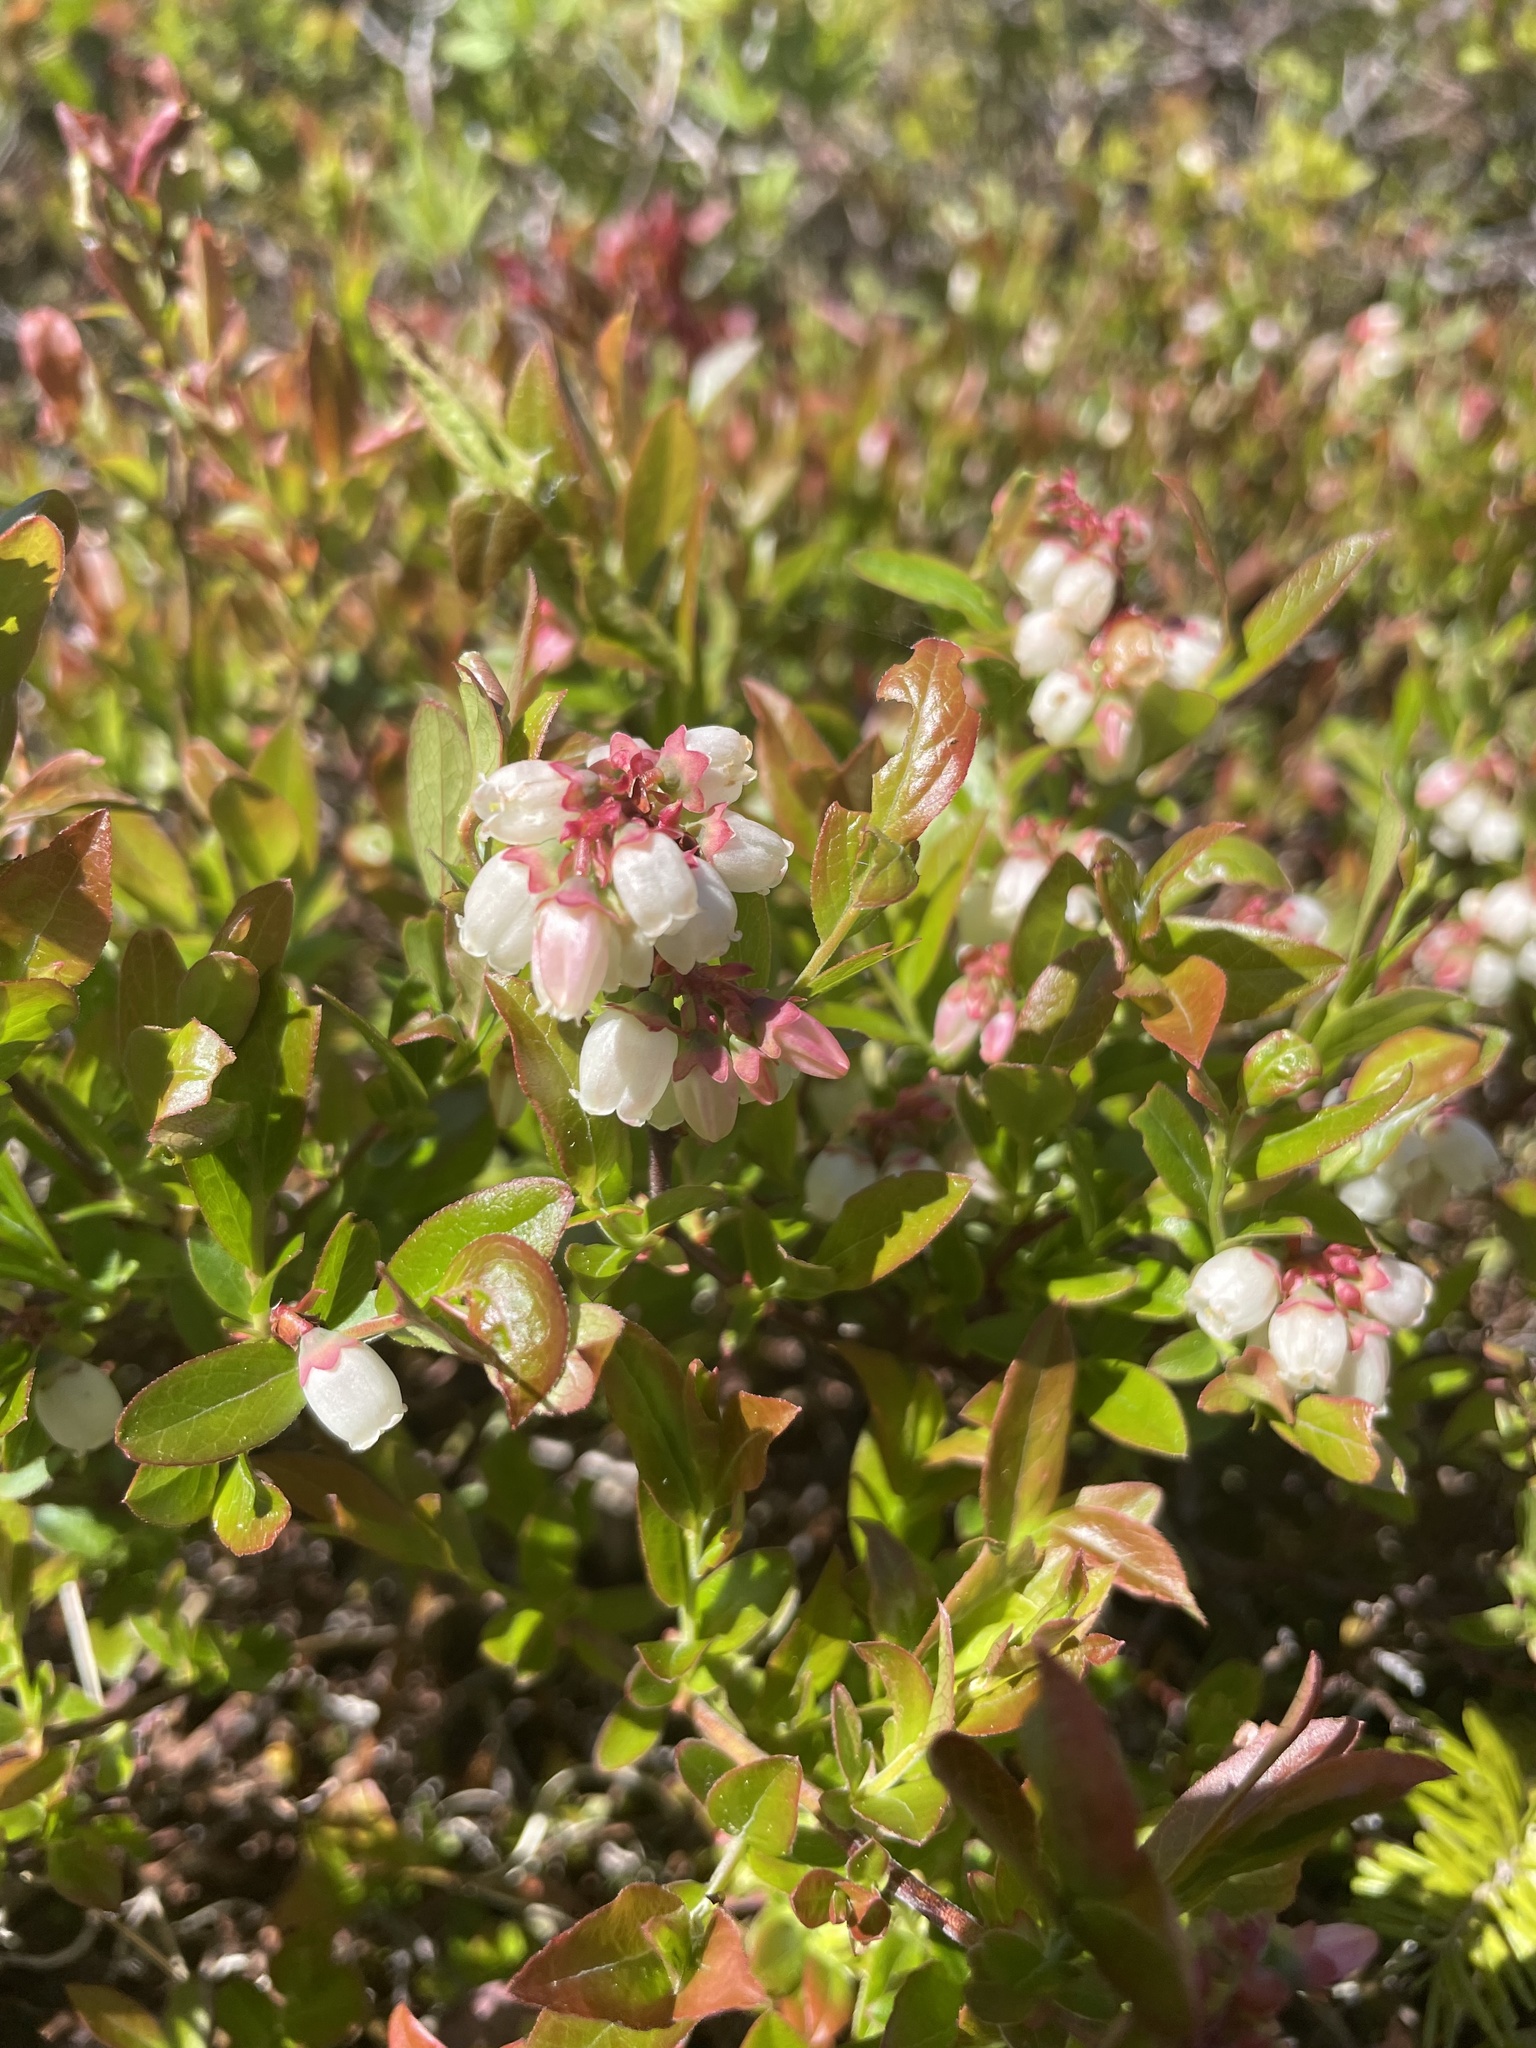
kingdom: Plantae
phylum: Tracheophyta
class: Magnoliopsida
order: Ericales
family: Ericaceae
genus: Vaccinium
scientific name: Vaccinium angustifolium
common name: Early lowbush blueberry
